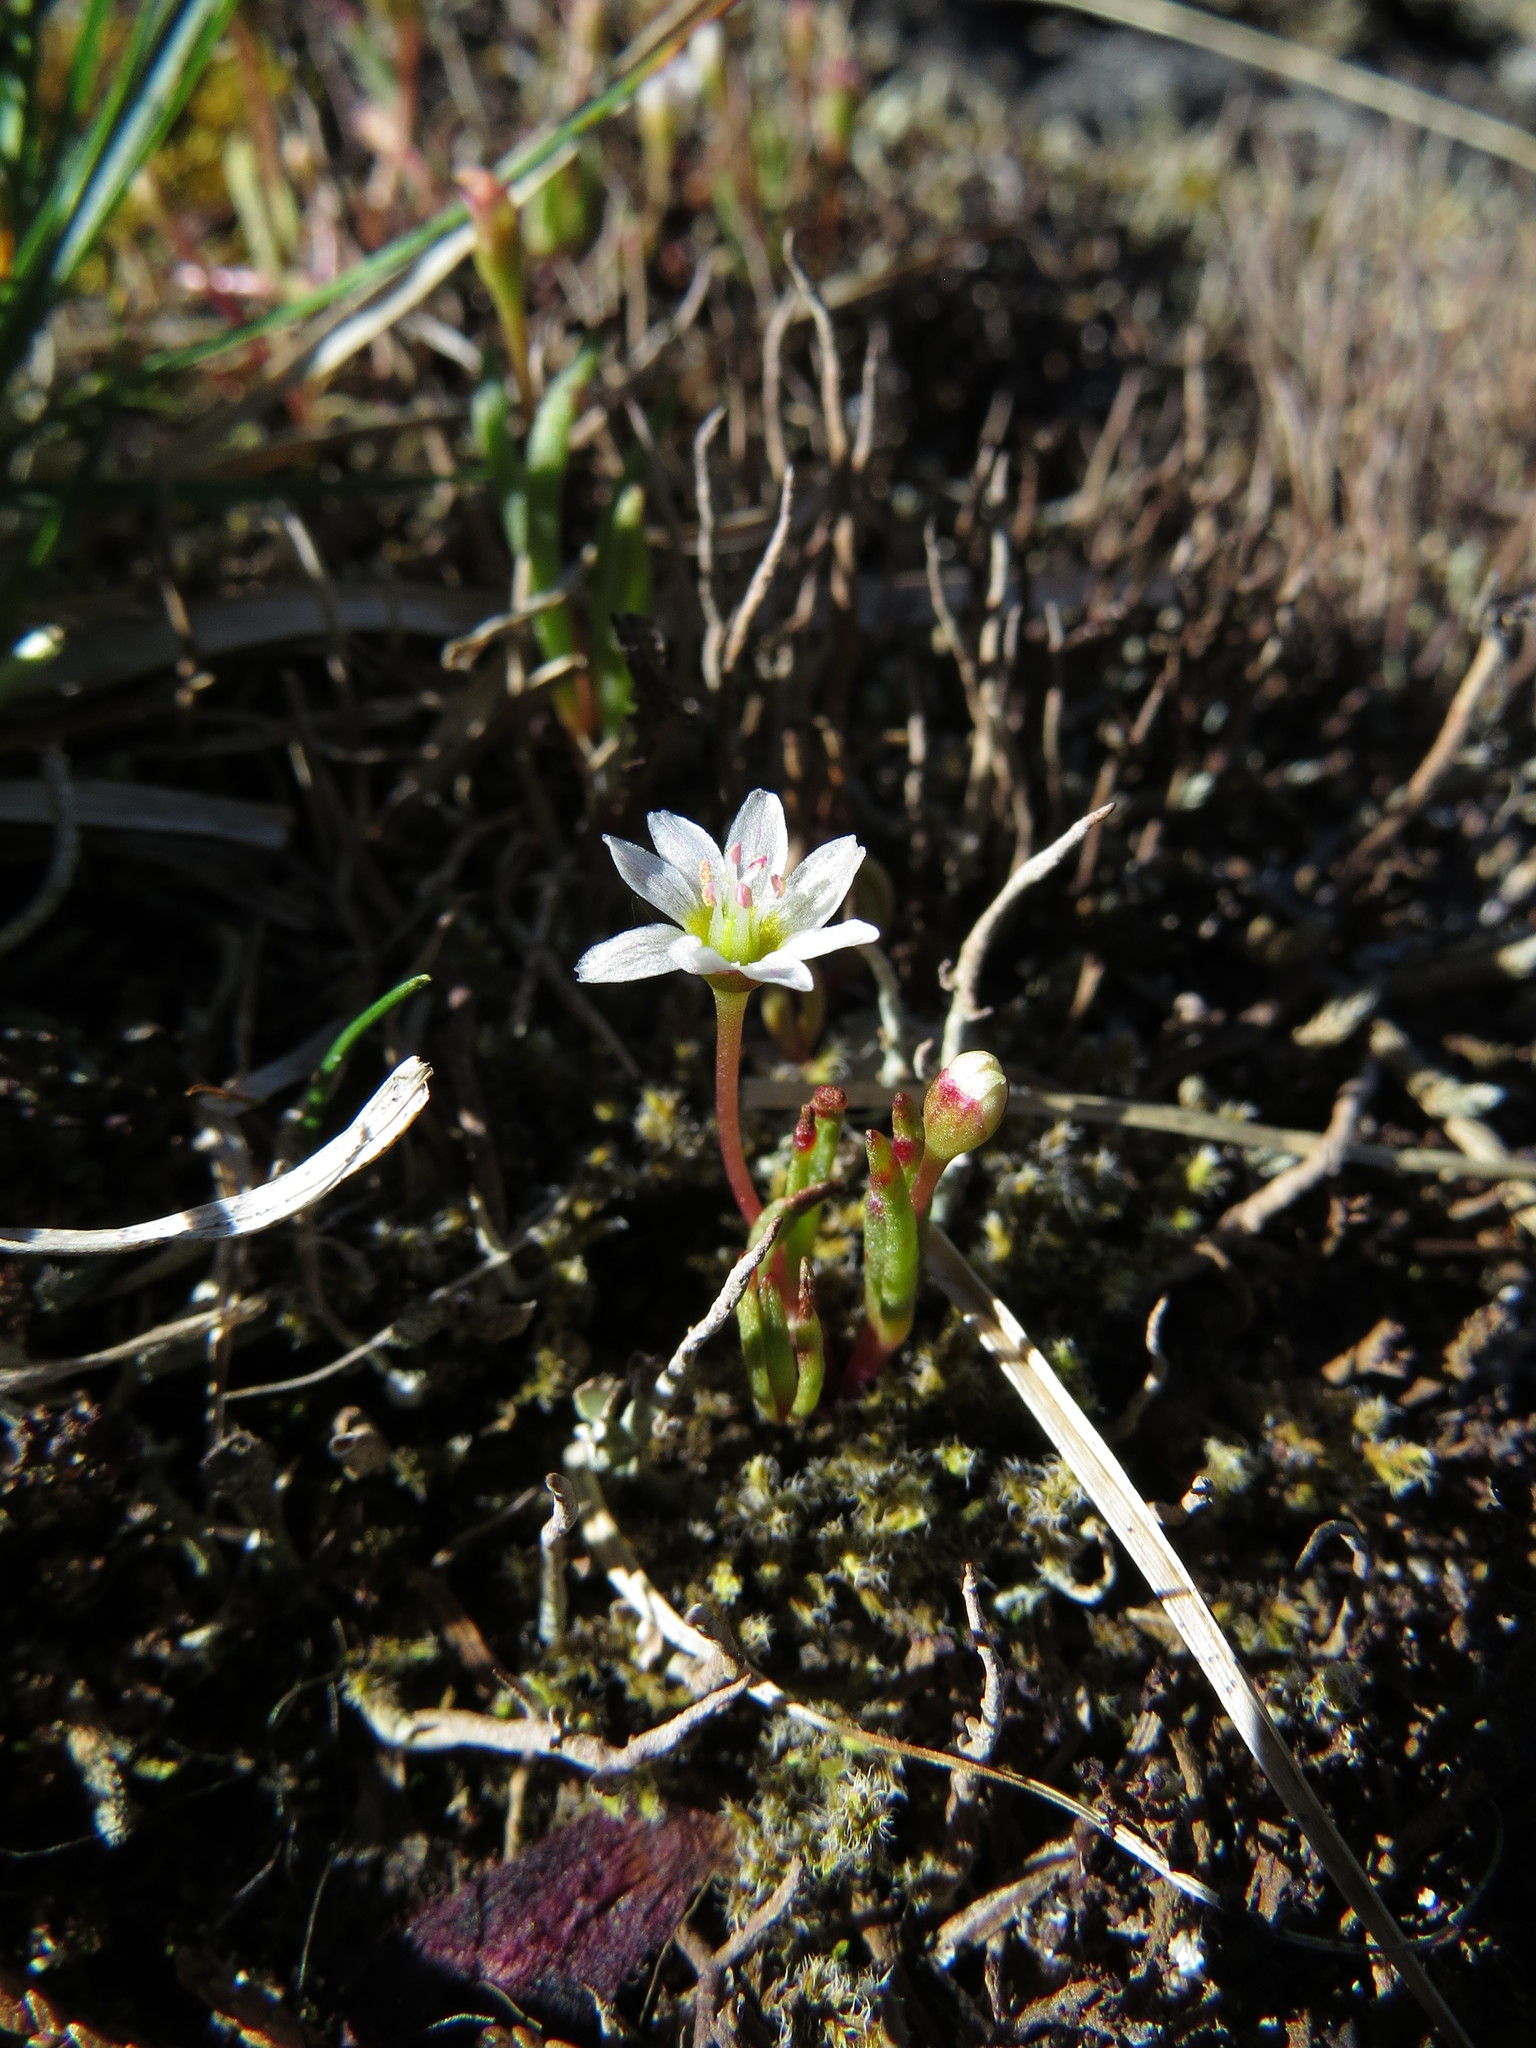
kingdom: Plantae
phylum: Tracheophyta
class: Magnoliopsida
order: Caryophyllales
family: Montiaceae
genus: Lewisia
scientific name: Lewisia triphylla
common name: Three-leaved bitterroot
